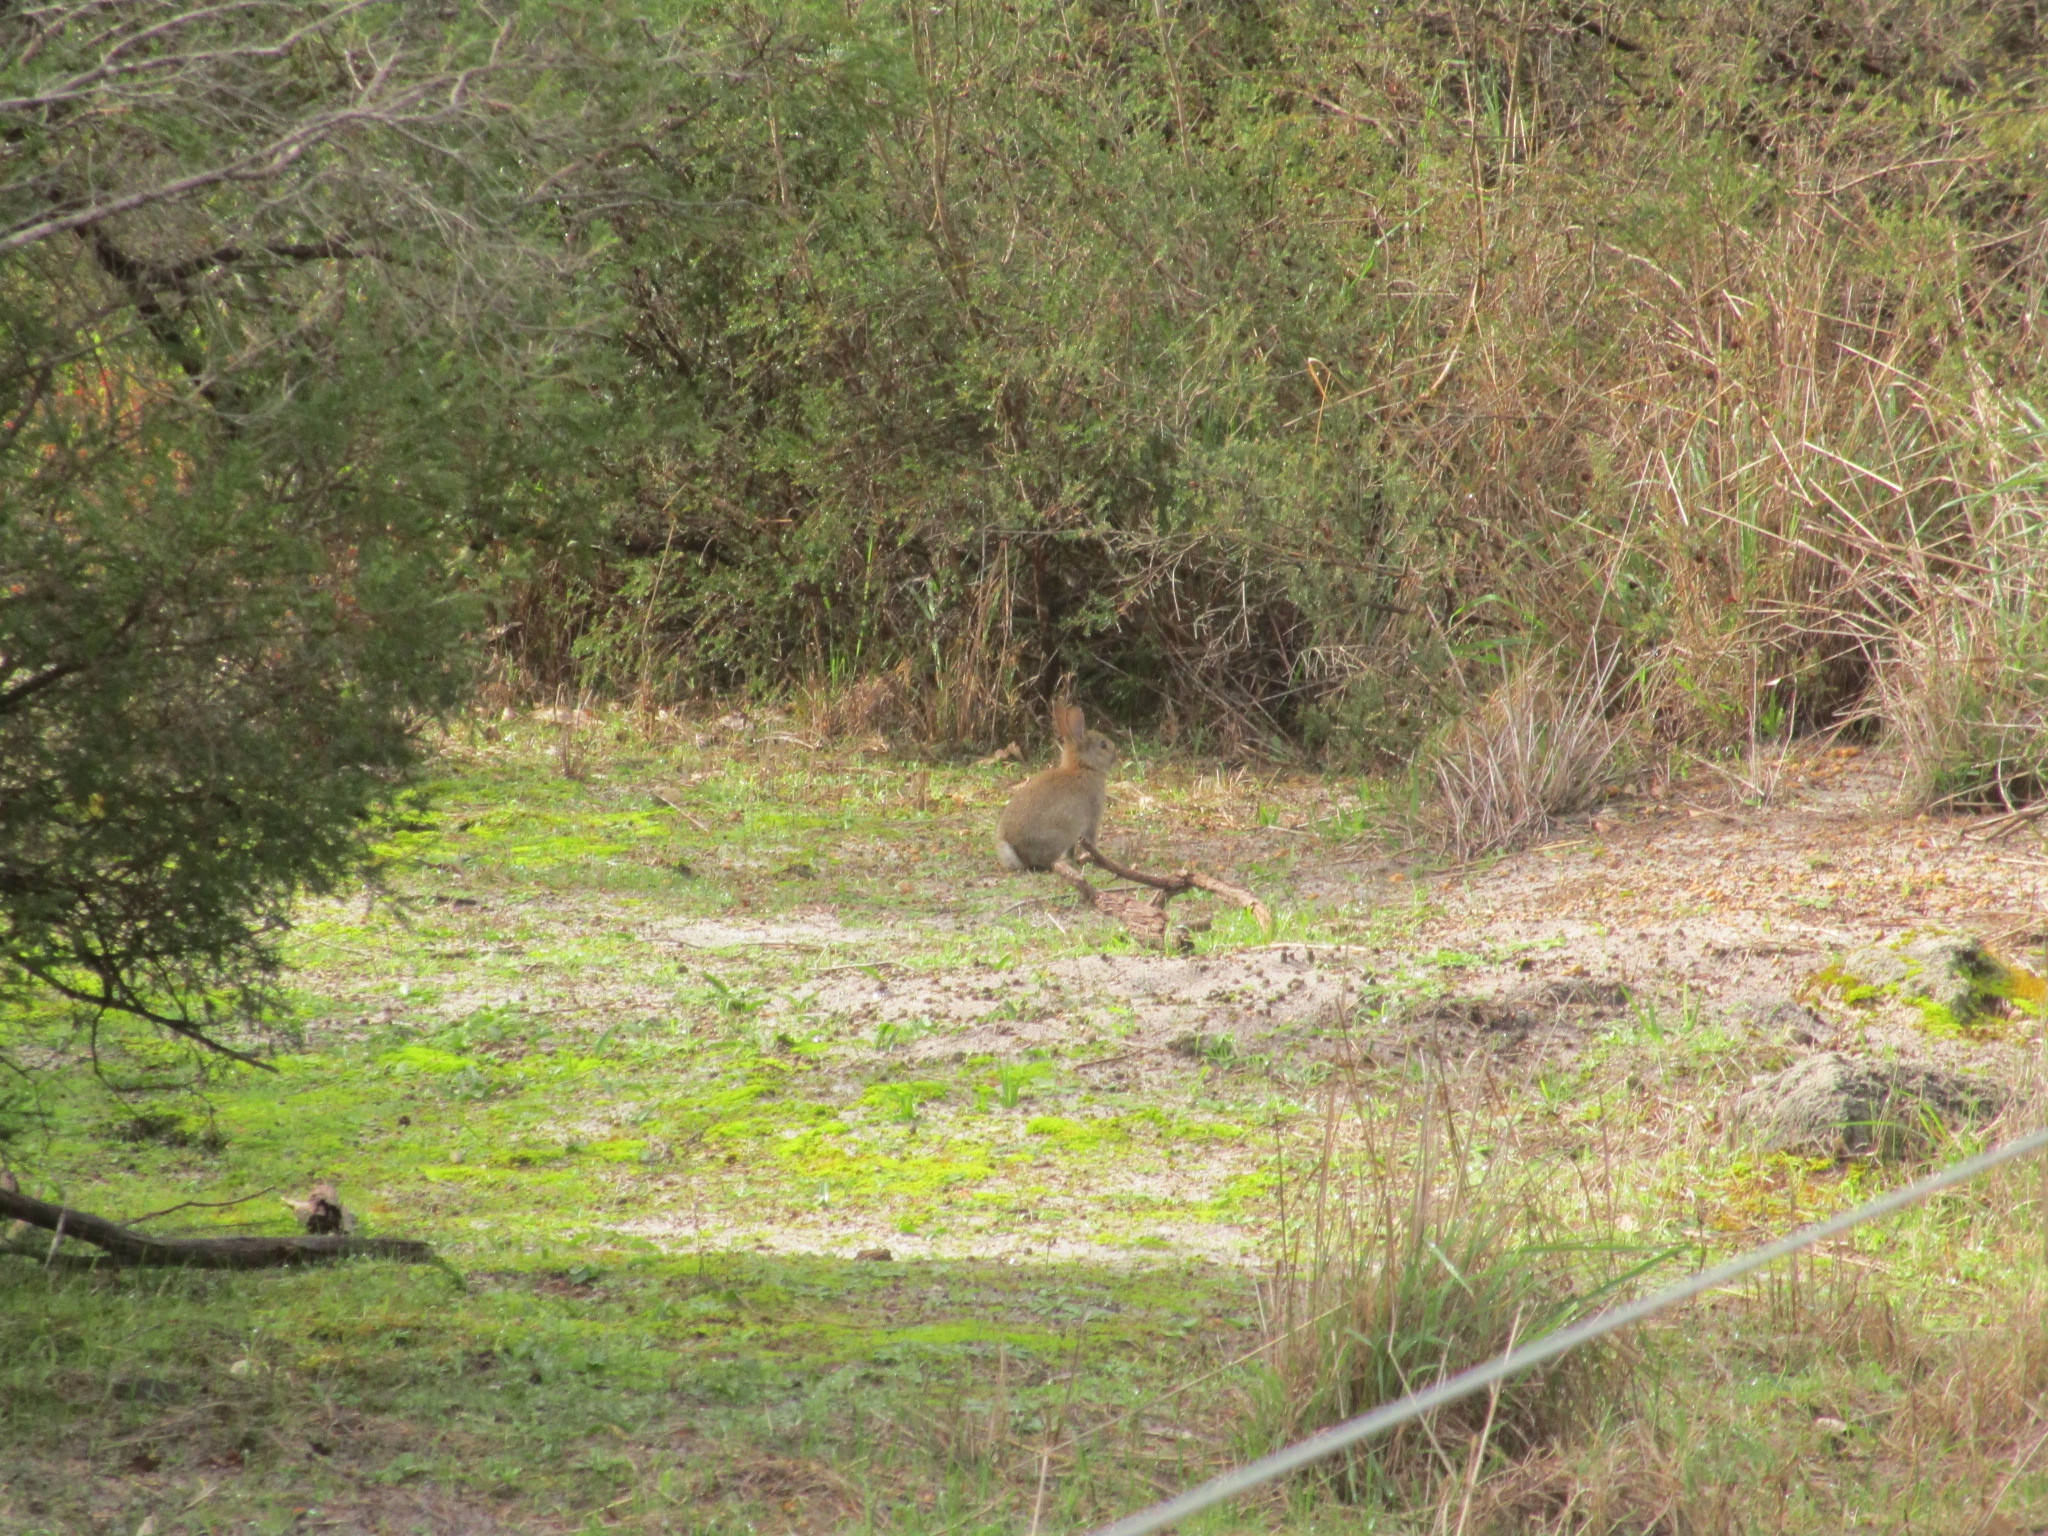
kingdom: Animalia
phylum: Chordata
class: Mammalia
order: Lagomorpha
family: Leporidae
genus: Oryctolagus
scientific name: Oryctolagus cuniculus
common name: European rabbit
